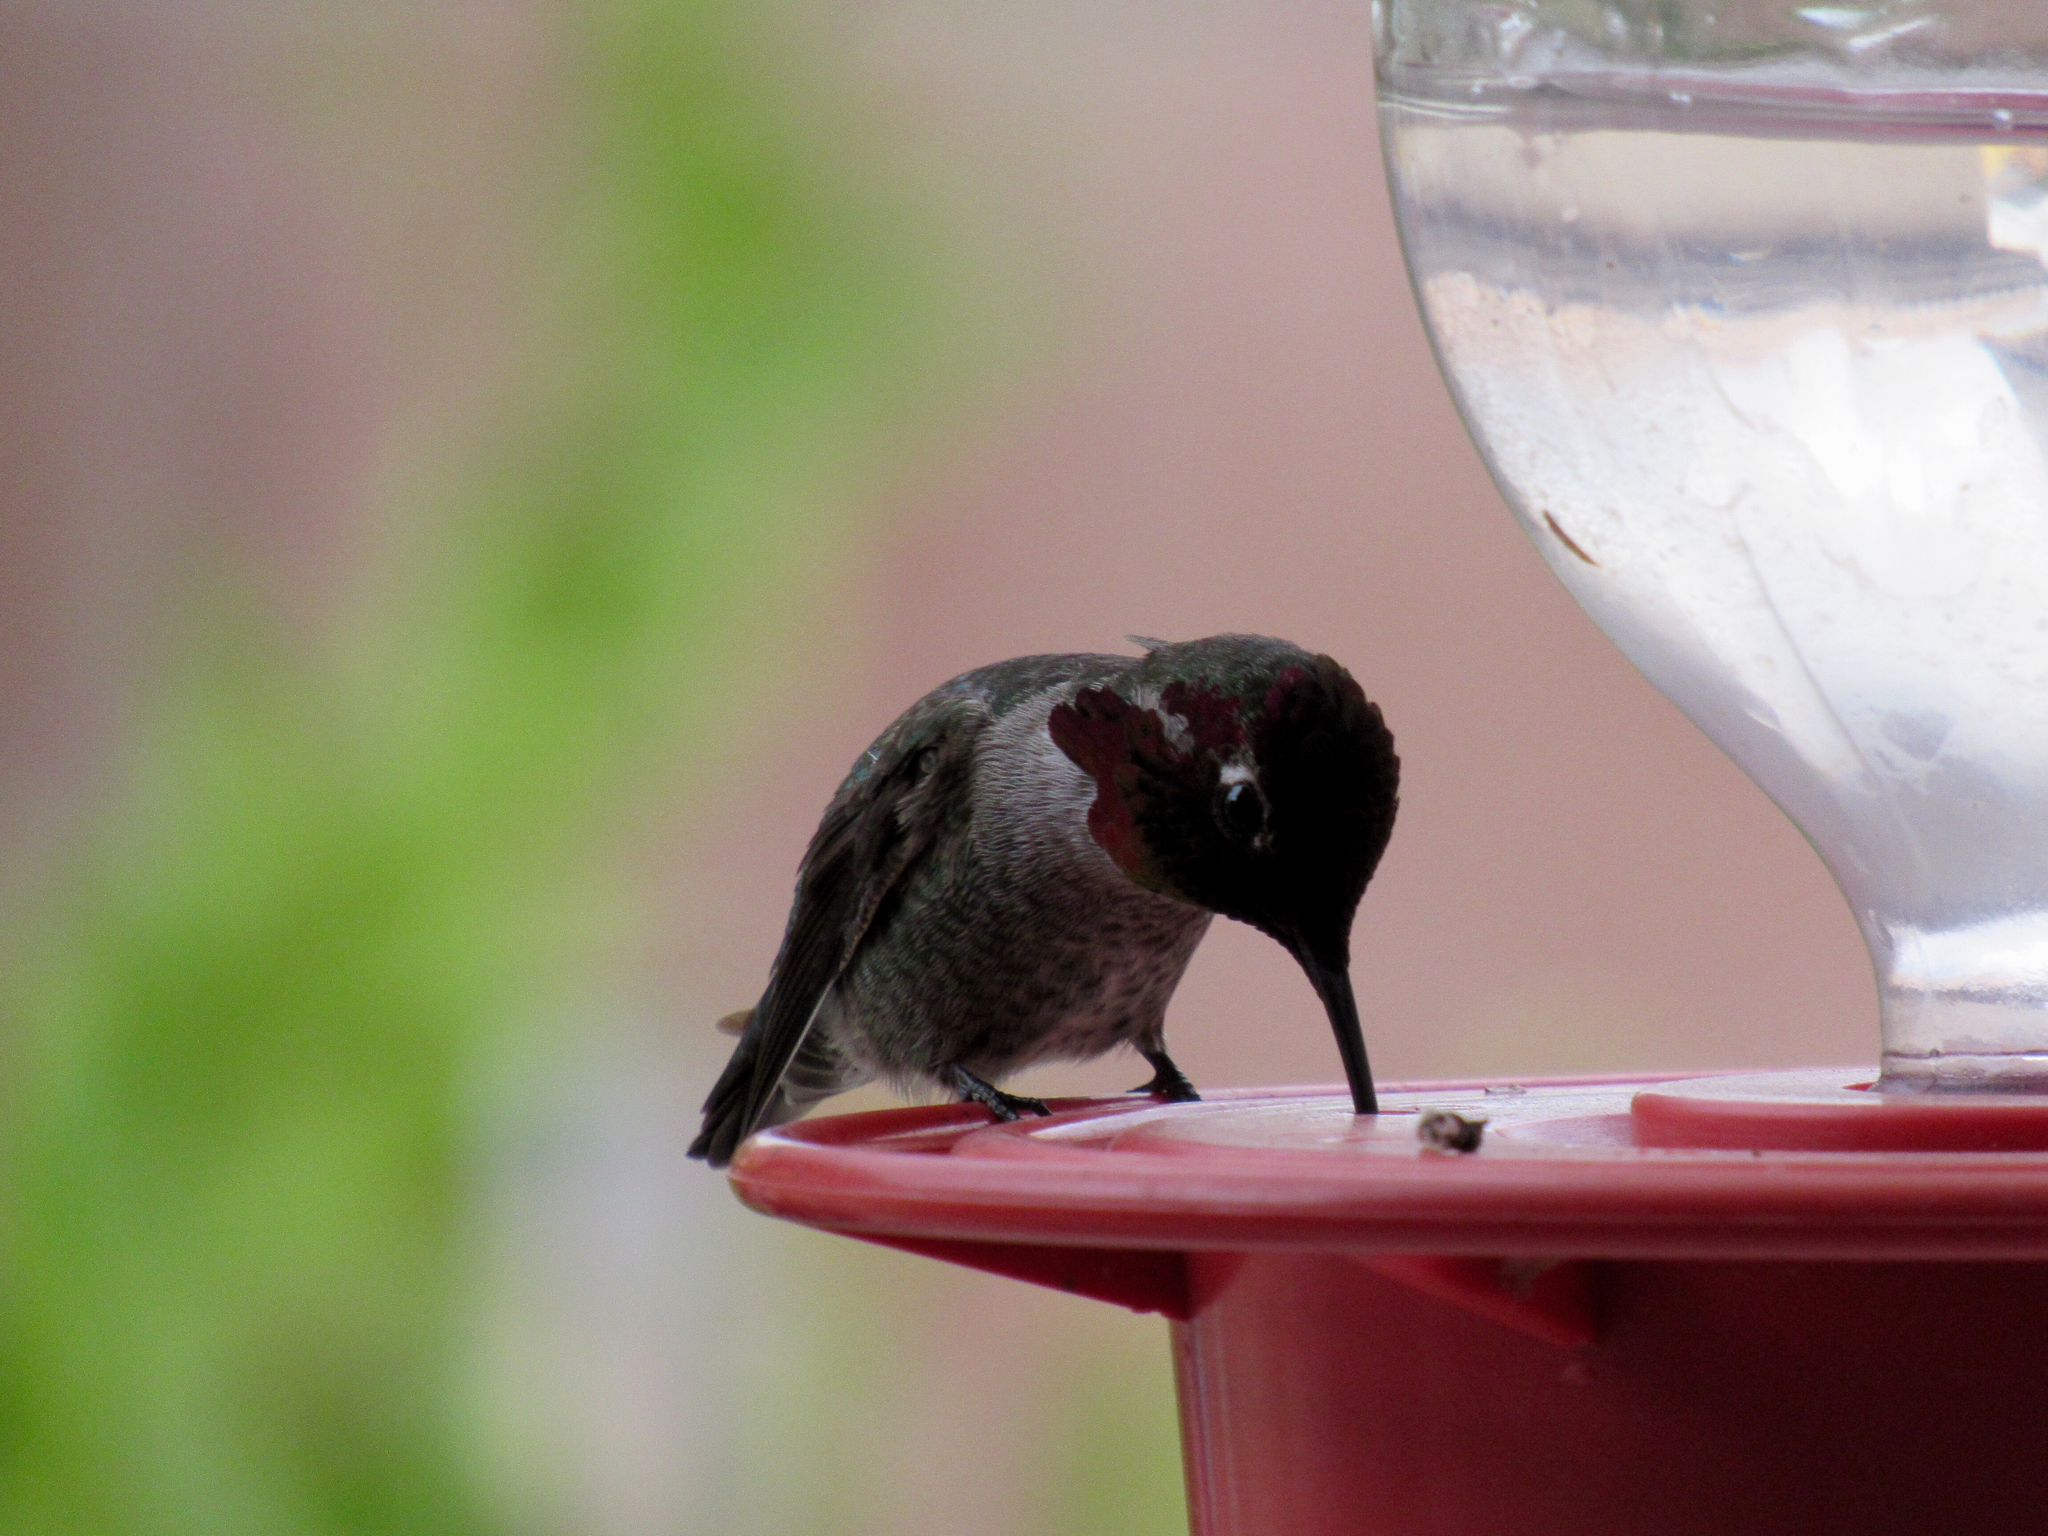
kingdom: Animalia
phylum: Chordata
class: Aves
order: Apodiformes
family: Trochilidae
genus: Calypte
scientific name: Calypte anna
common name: Anna's hummingbird
